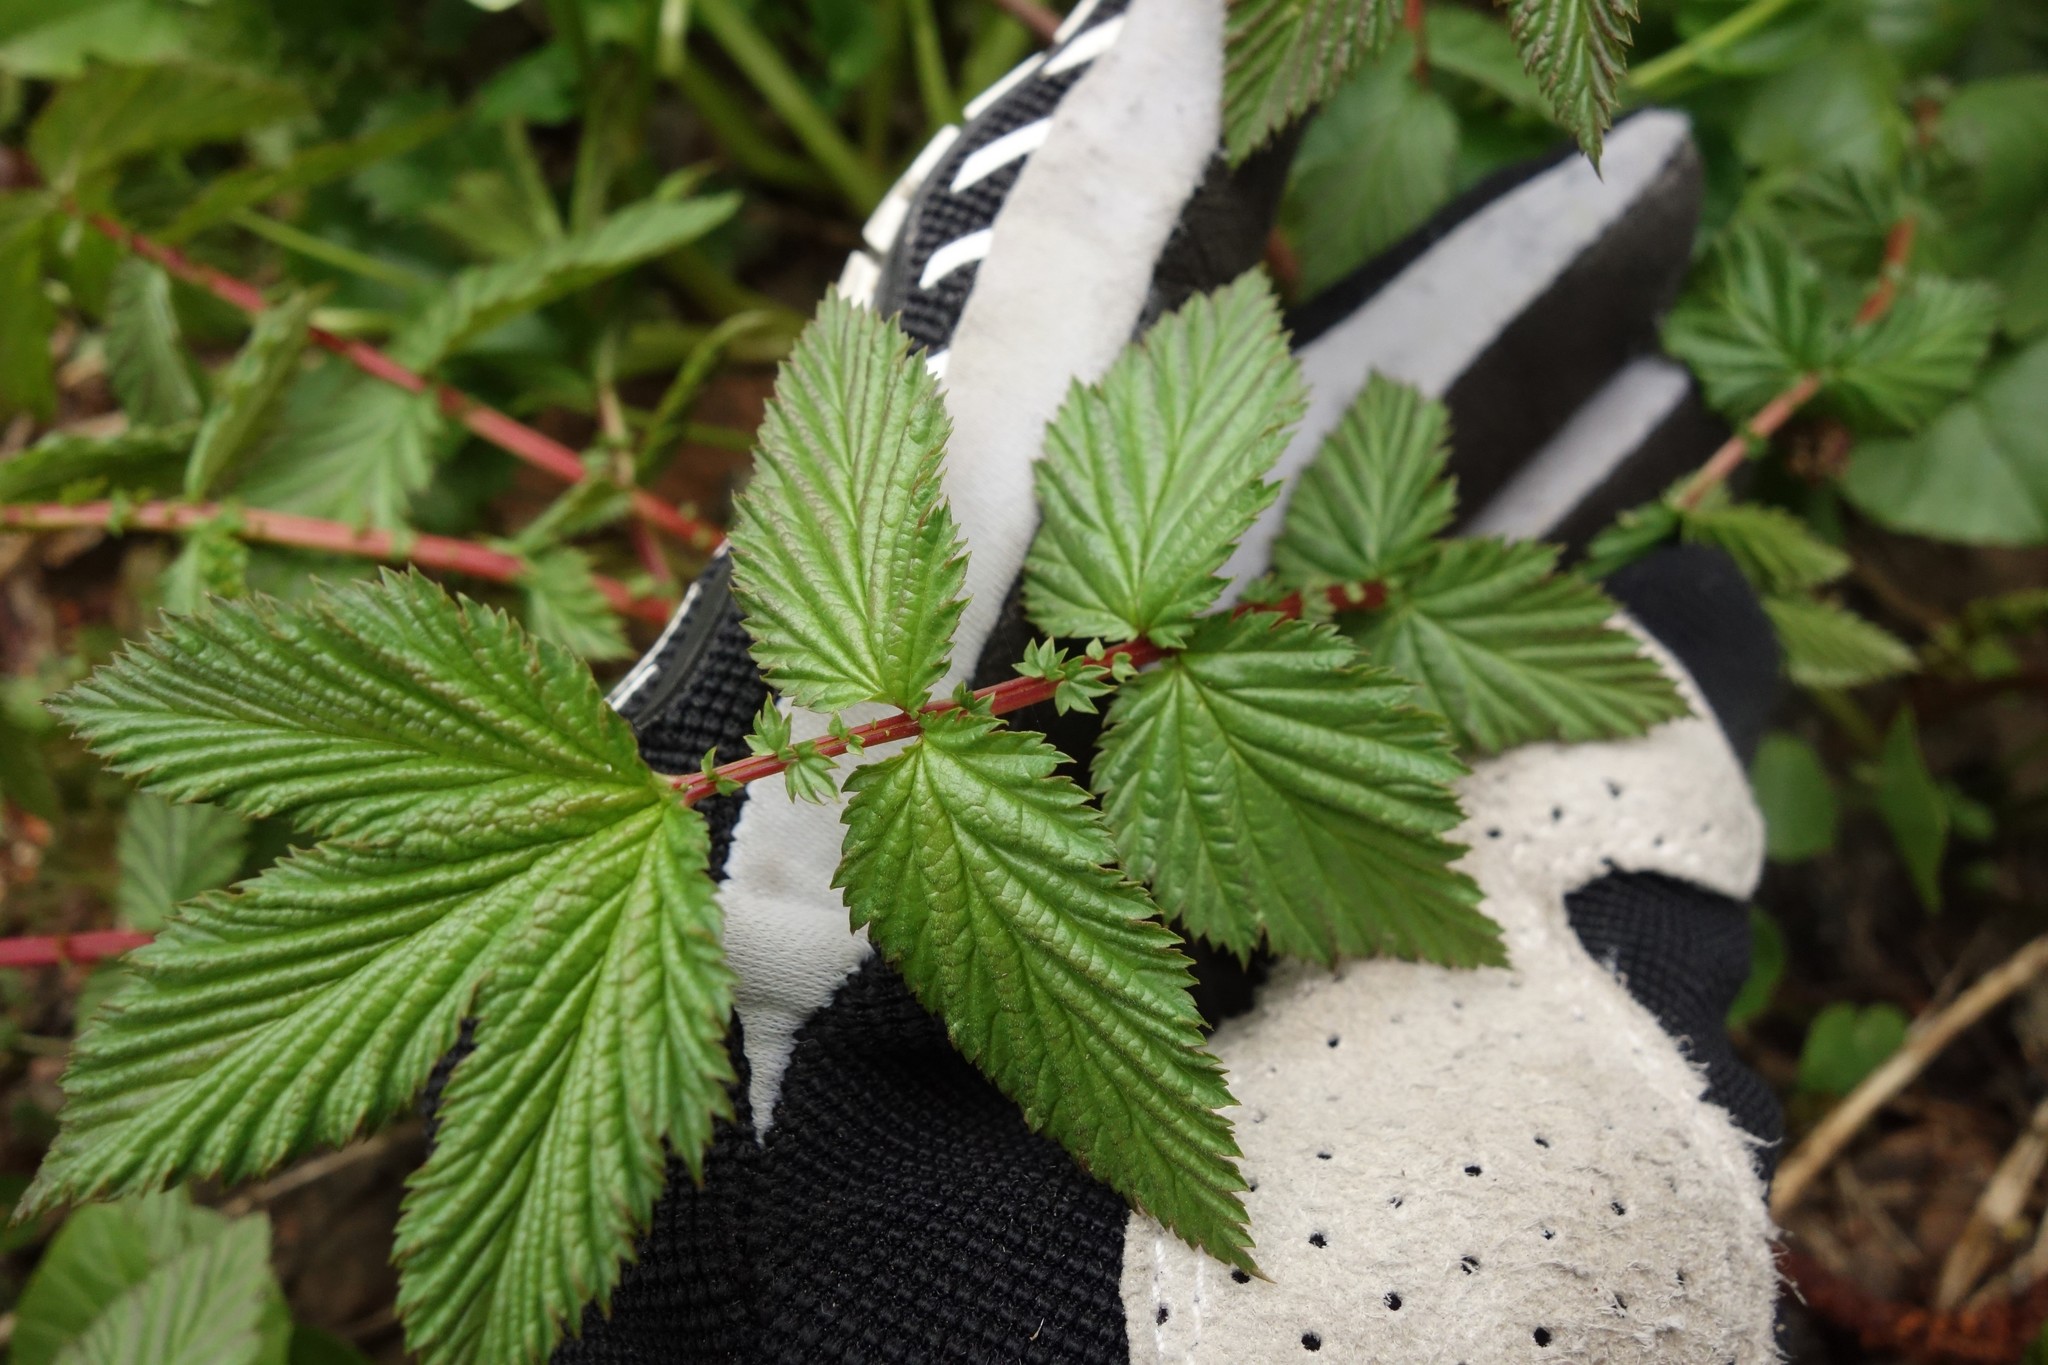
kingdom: Plantae
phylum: Tracheophyta
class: Magnoliopsida
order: Rosales
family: Rosaceae
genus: Filipendula
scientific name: Filipendula ulmaria
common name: Meadowsweet
